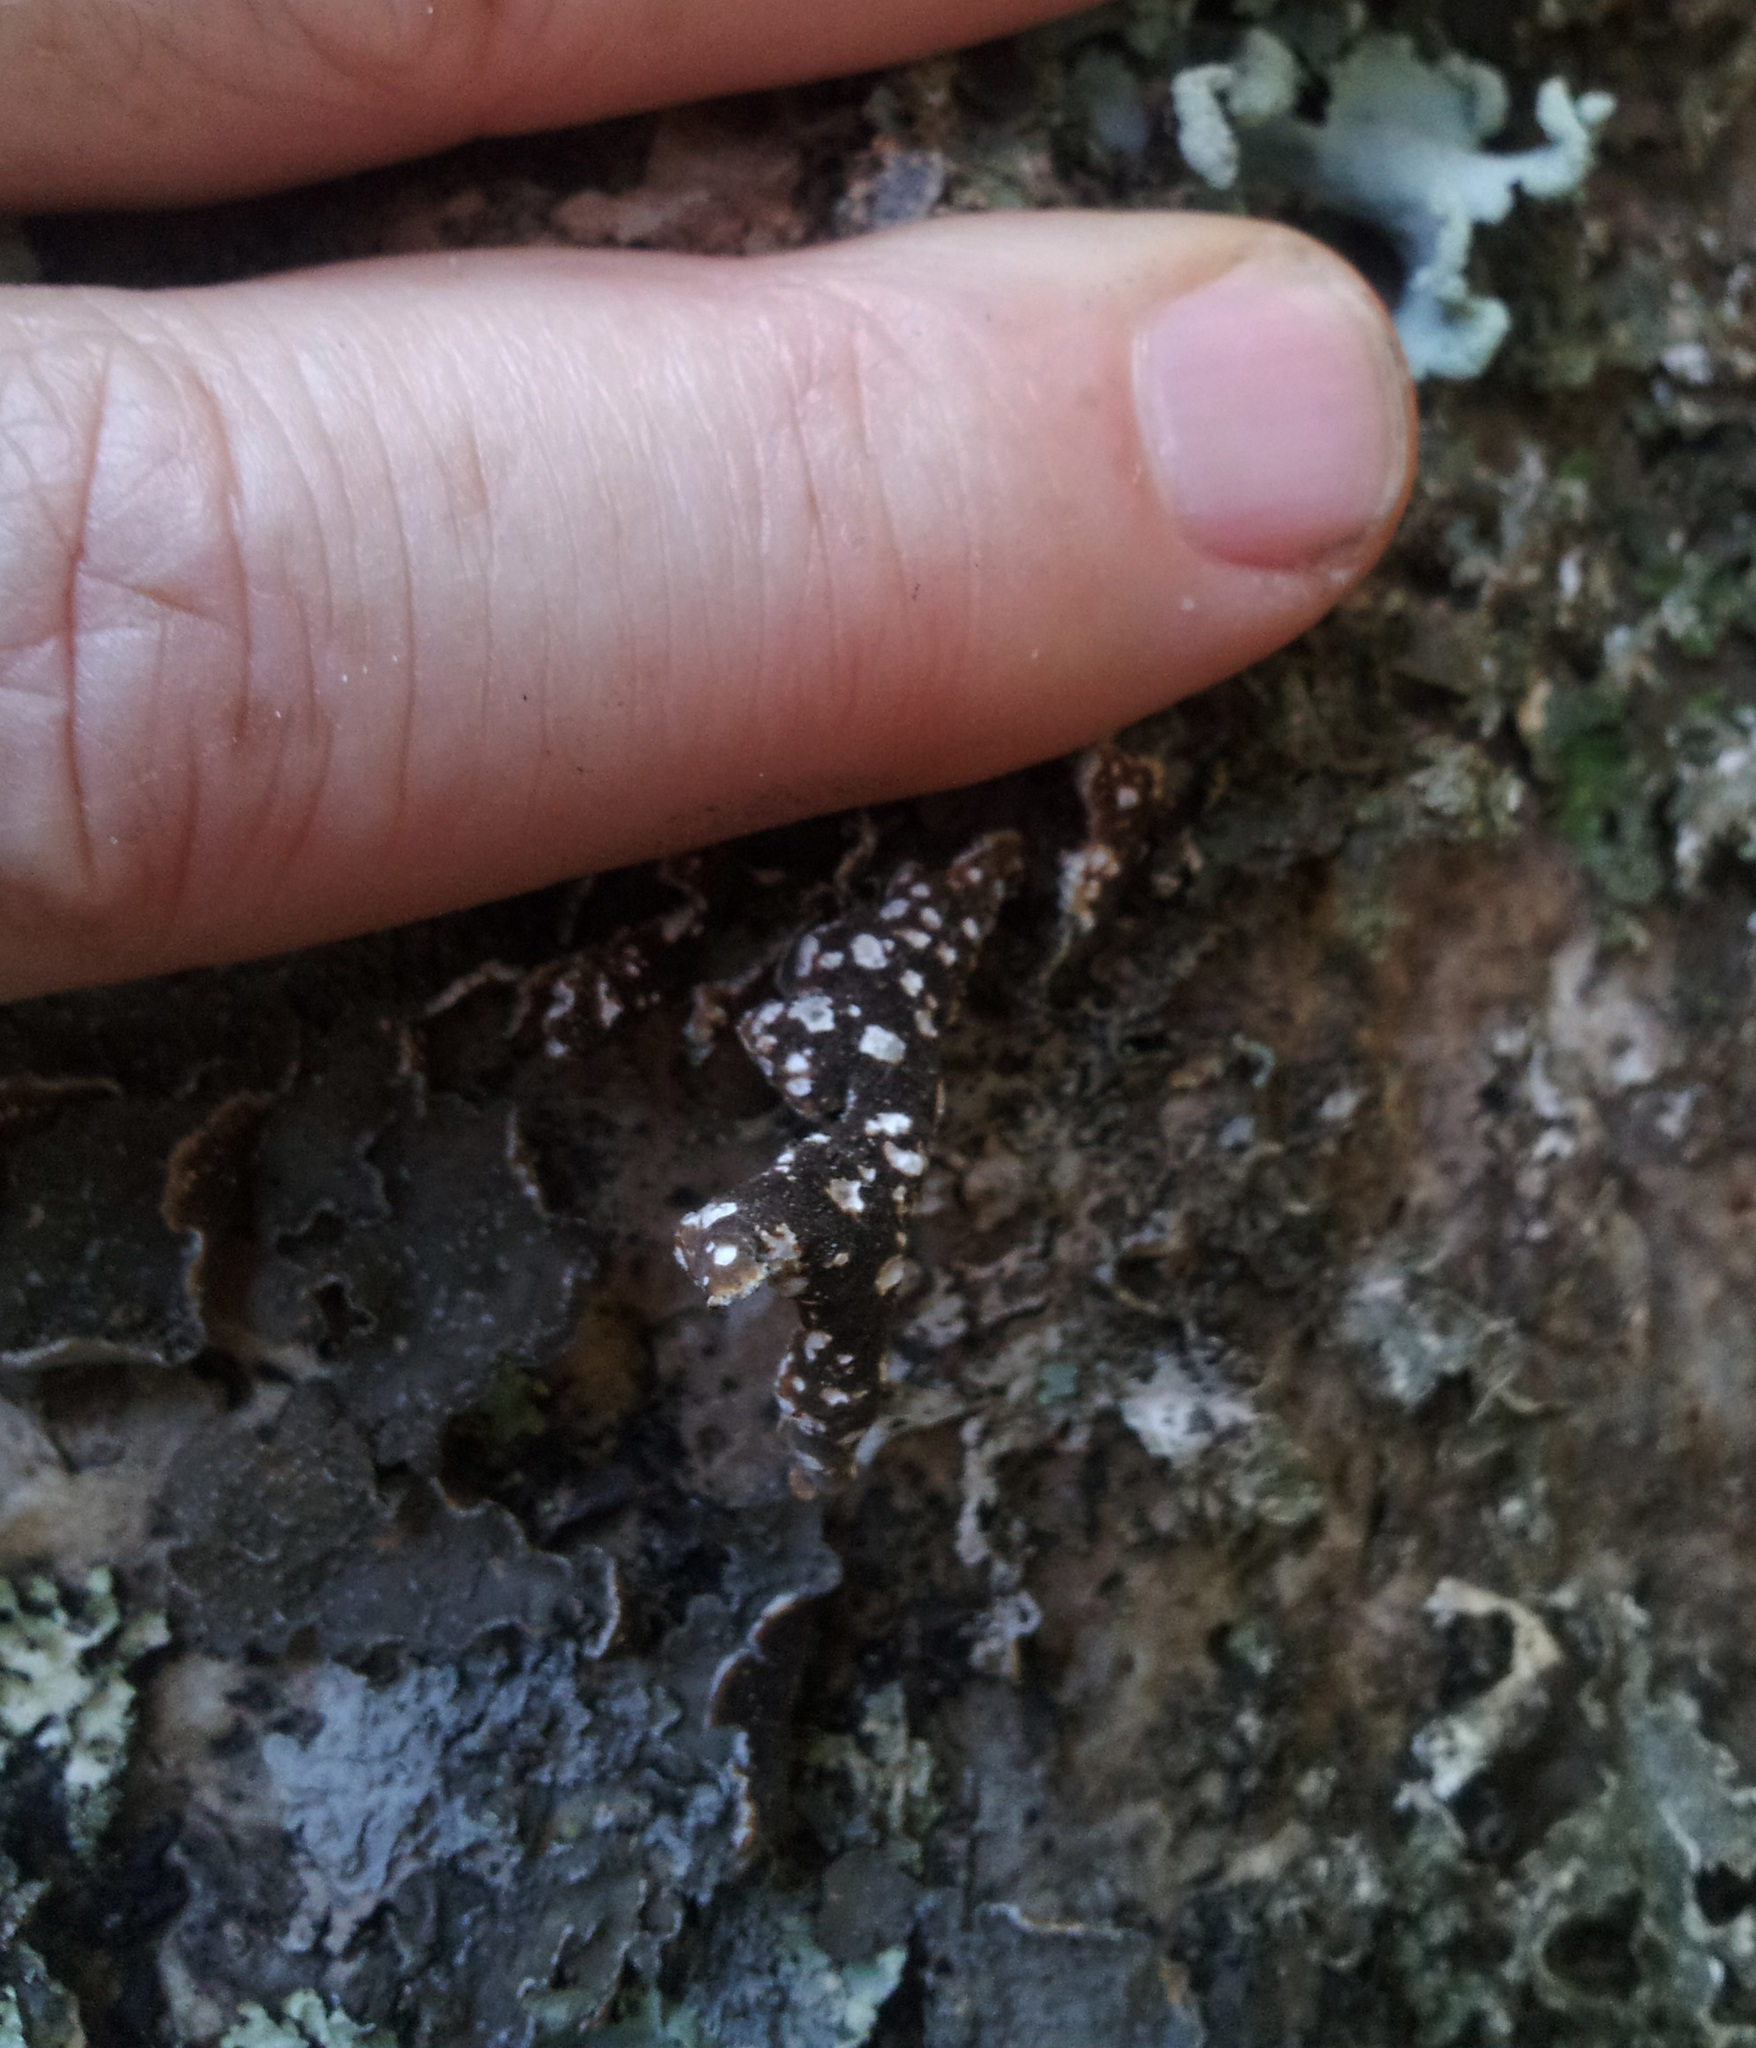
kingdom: Fungi
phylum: Ascomycota
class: Lecanoromycetes
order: Peltigerales
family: Lobariaceae
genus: Pseudocyphellaria
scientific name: Pseudocyphellaria haywardiorum
